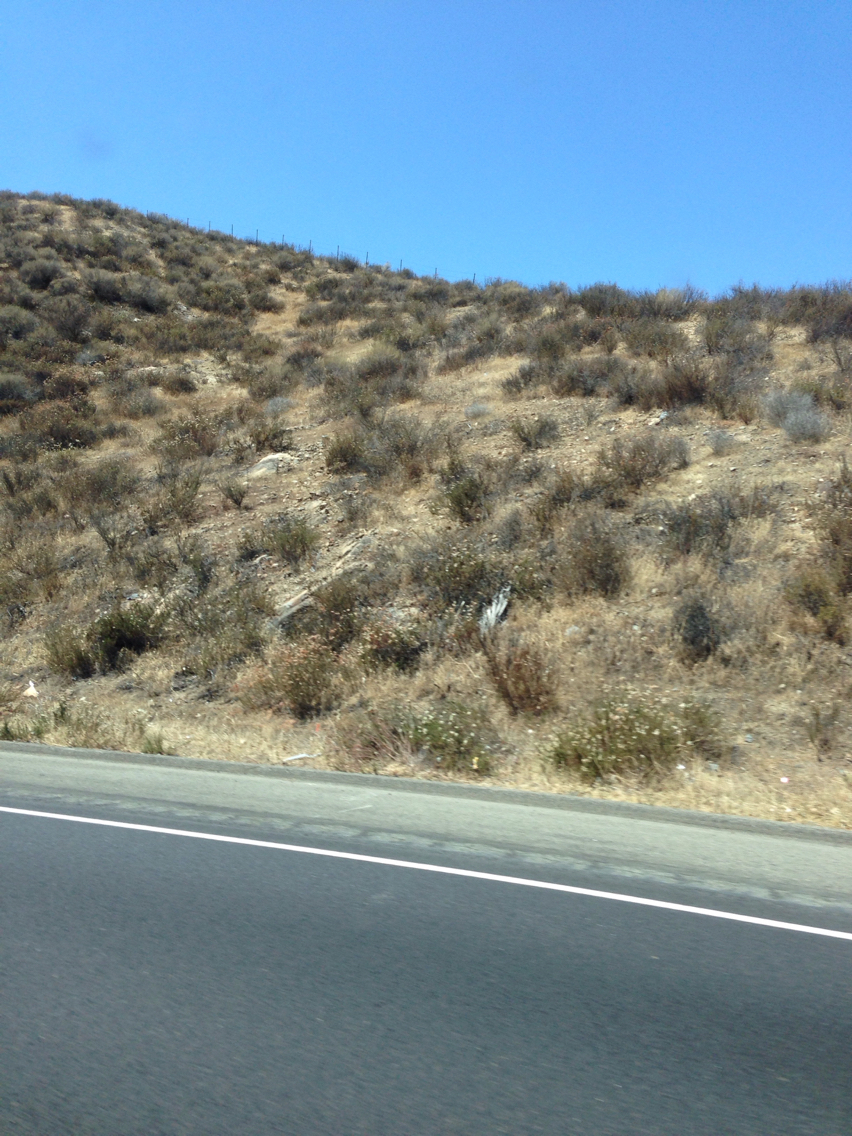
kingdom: Plantae
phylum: Tracheophyta
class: Magnoliopsida
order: Caryophyllales
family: Polygonaceae
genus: Eriogonum
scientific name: Eriogonum fasciculatum
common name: California wild buckwheat
